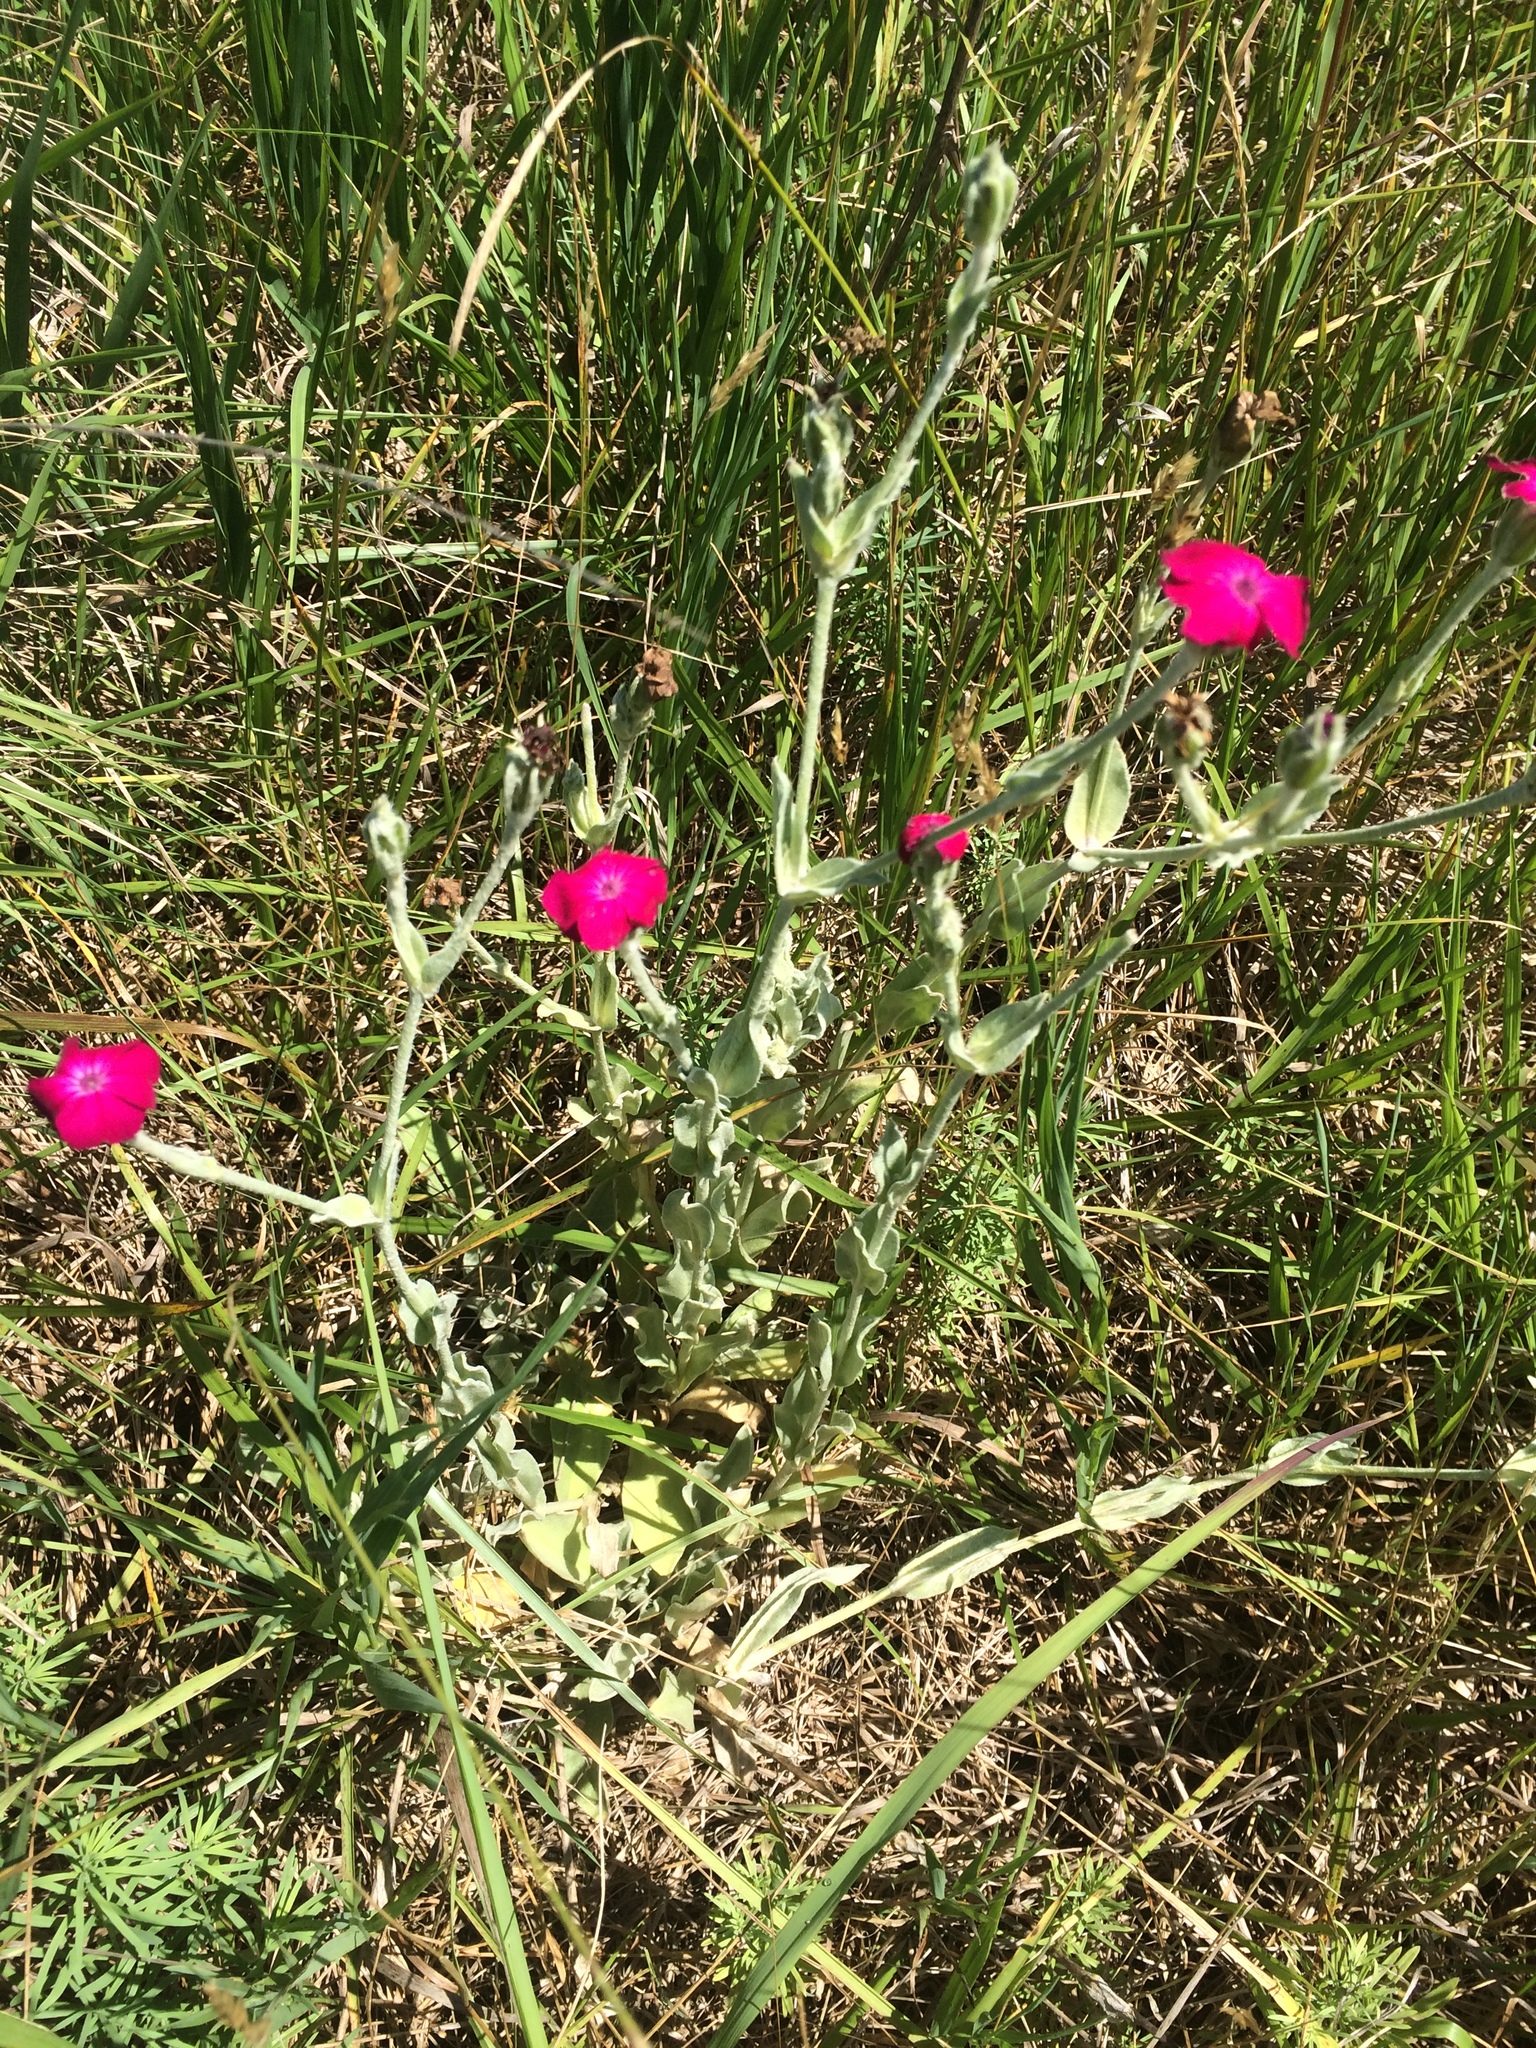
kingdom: Plantae
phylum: Tracheophyta
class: Magnoliopsida
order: Caryophyllales
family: Caryophyllaceae
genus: Silene
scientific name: Silene coronaria
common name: Rose campion
